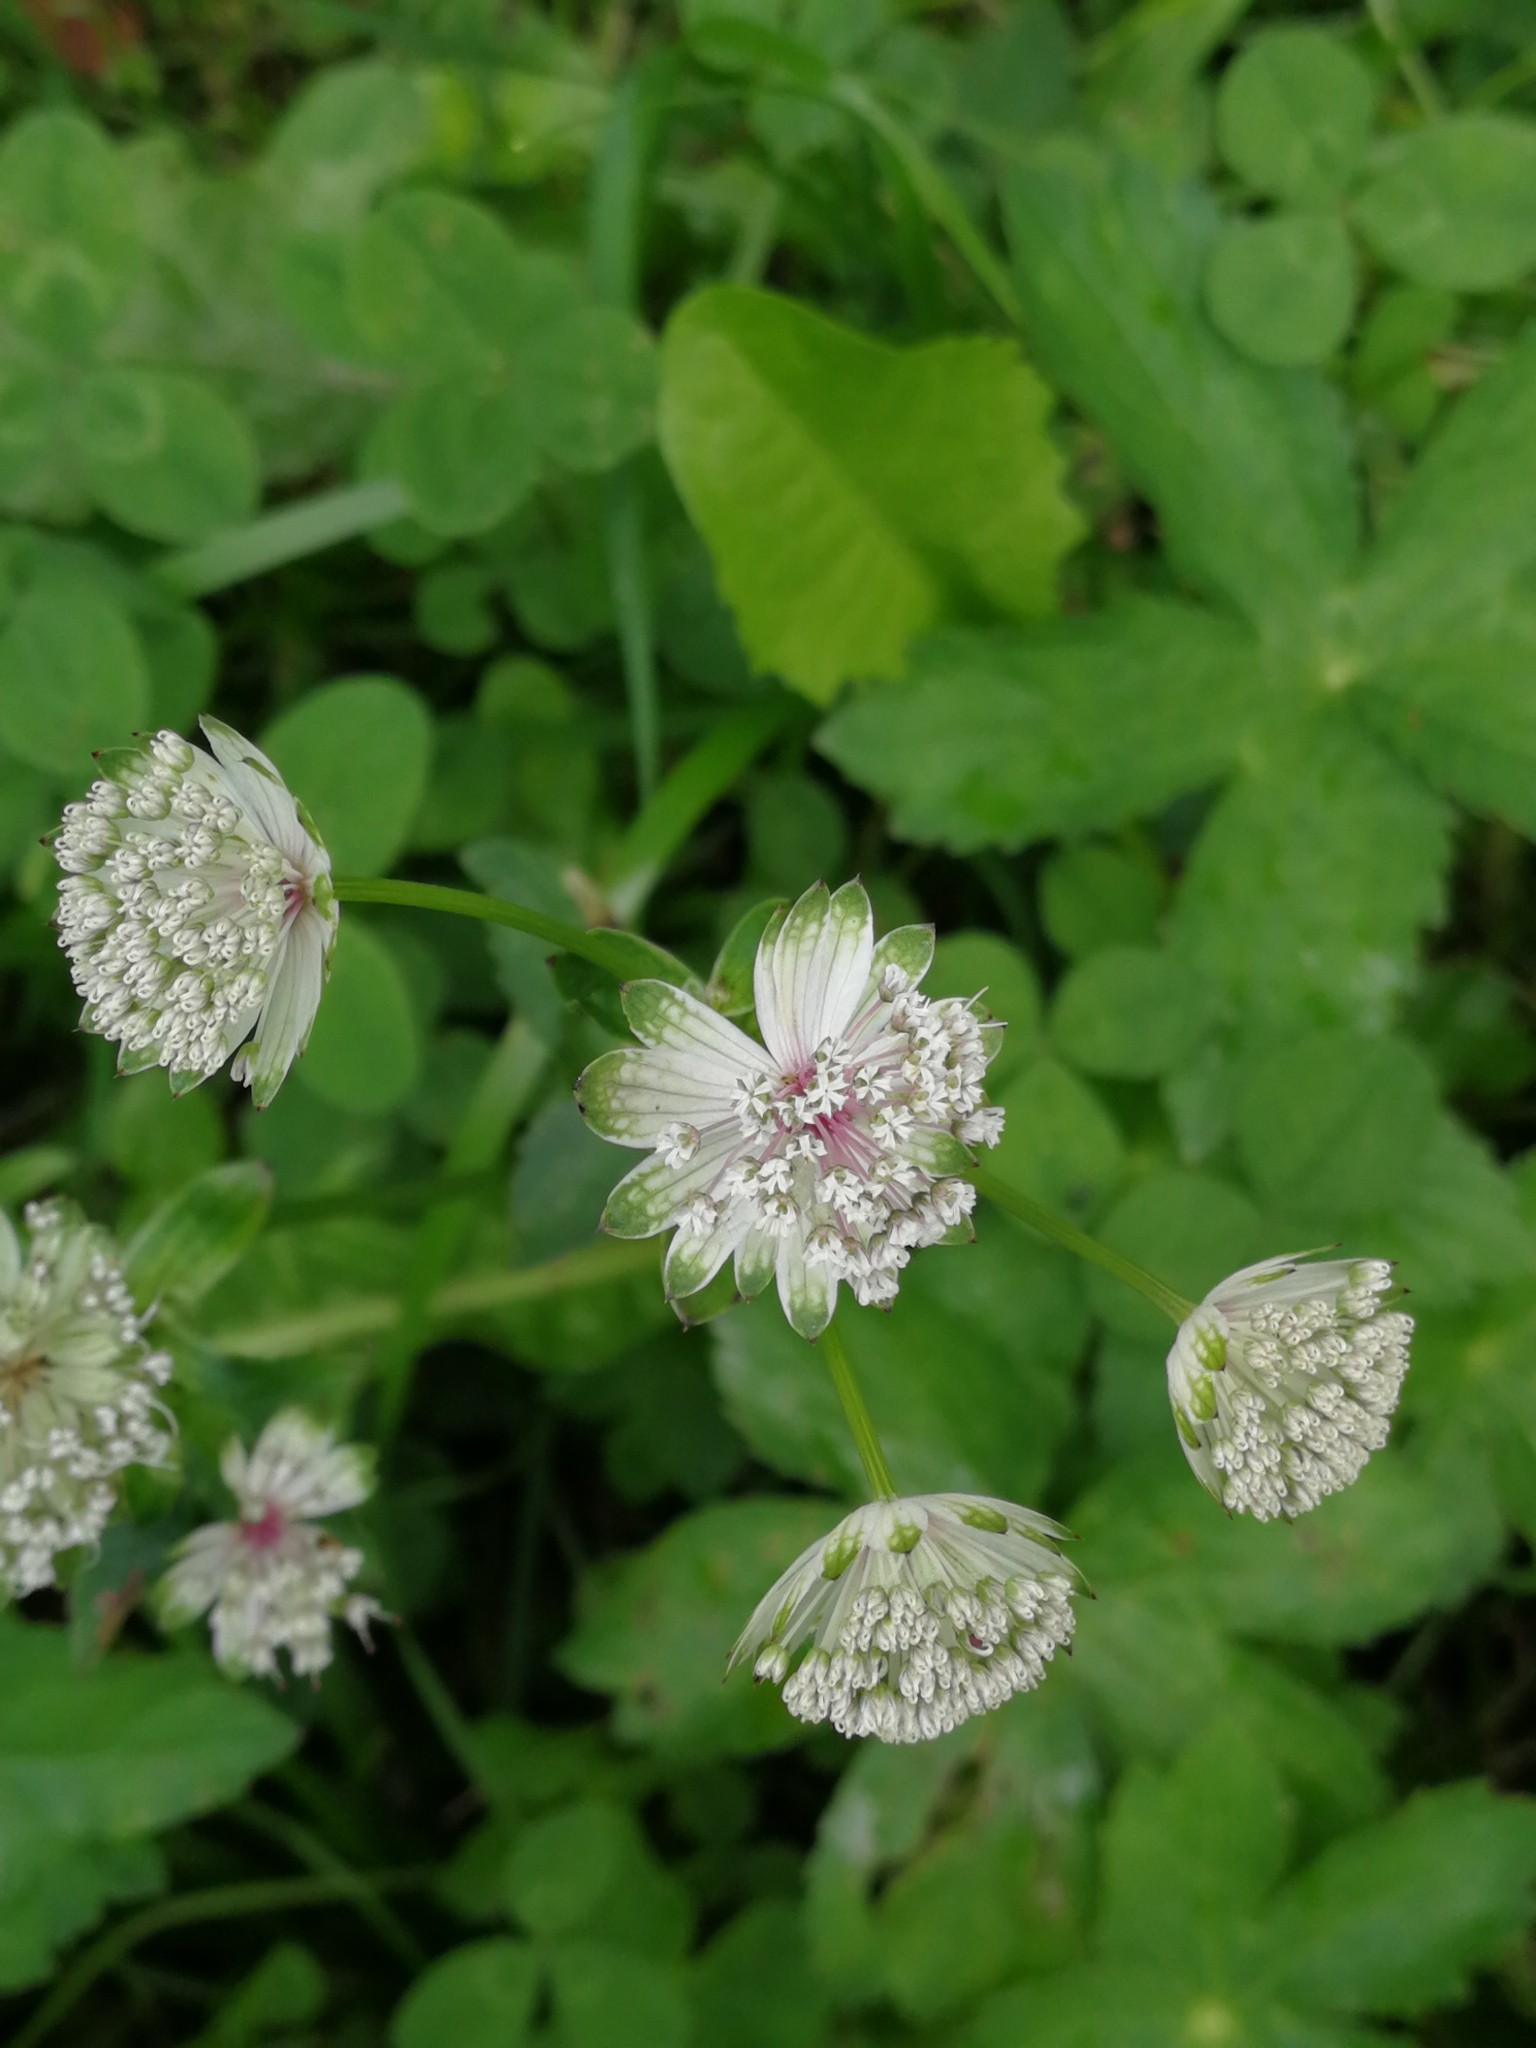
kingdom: Plantae
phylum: Tracheophyta
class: Magnoliopsida
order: Apiales
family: Apiaceae
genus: Astrantia
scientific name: Astrantia major
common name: Greater masterwort
